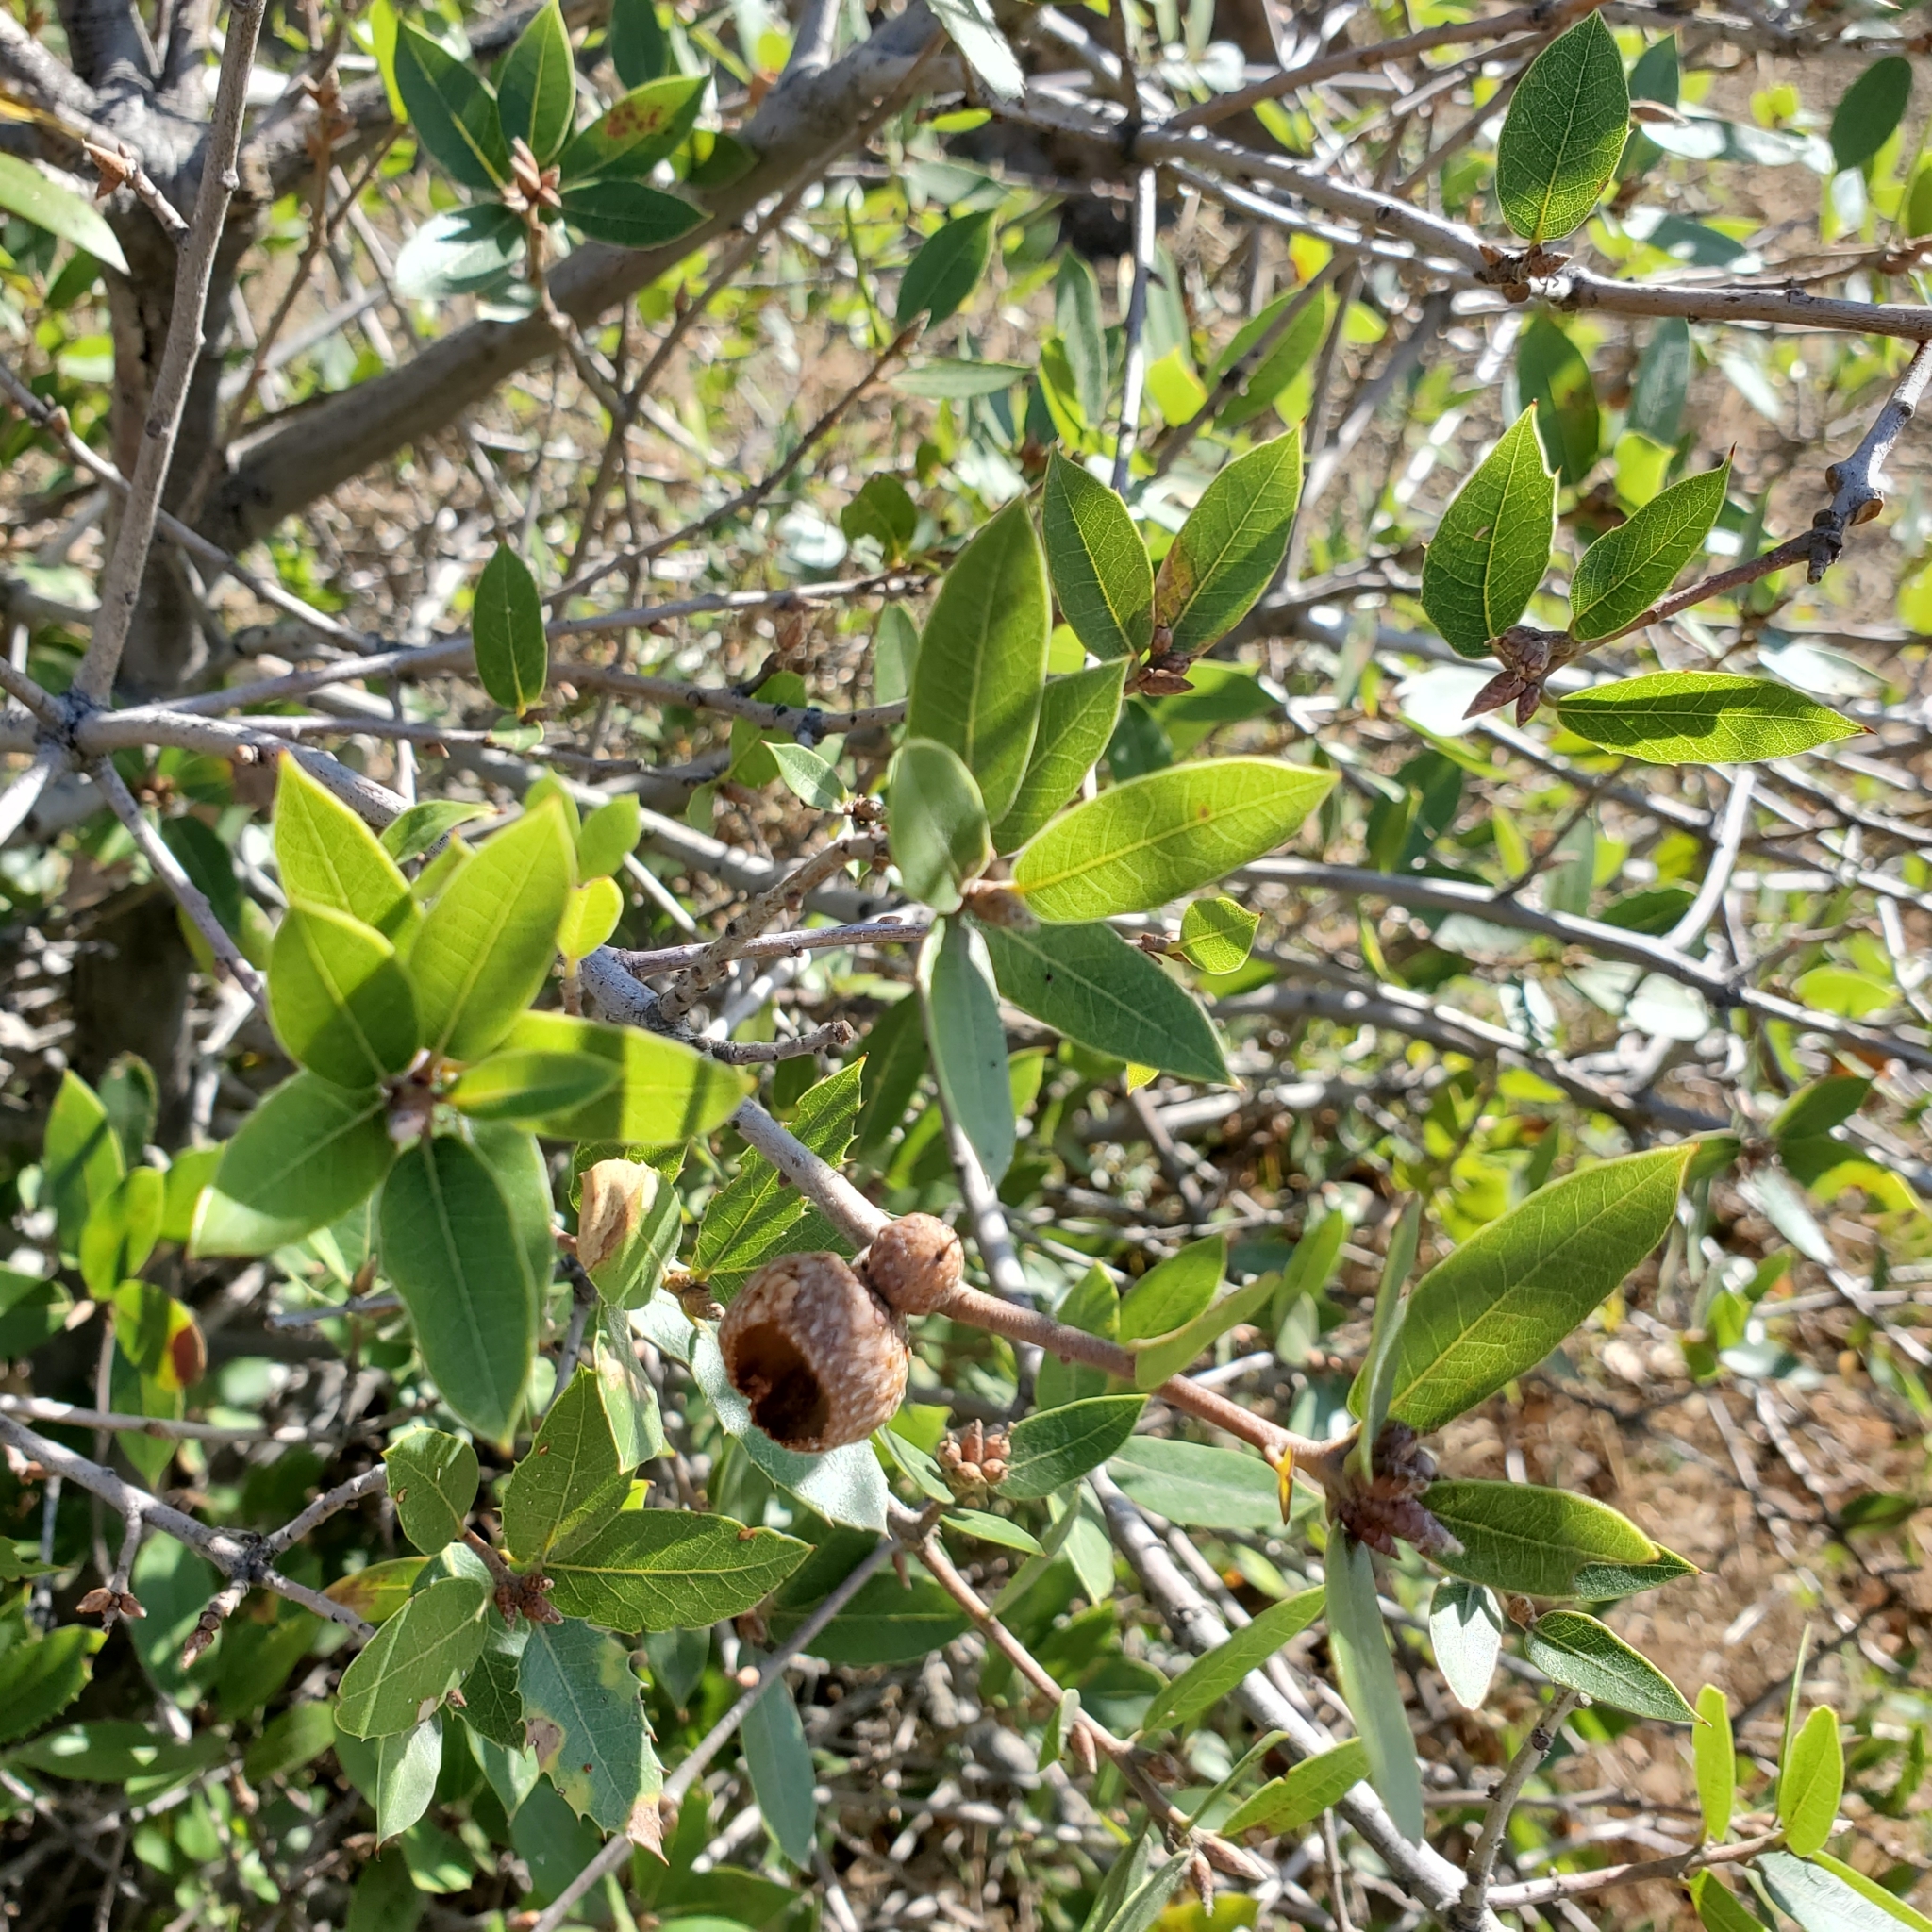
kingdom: Plantae
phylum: Tracheophyta
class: Magnoliopsida
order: Fagales
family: Fagaceae
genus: Quercus
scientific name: Quercus wislizeni
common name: Interior live oak
